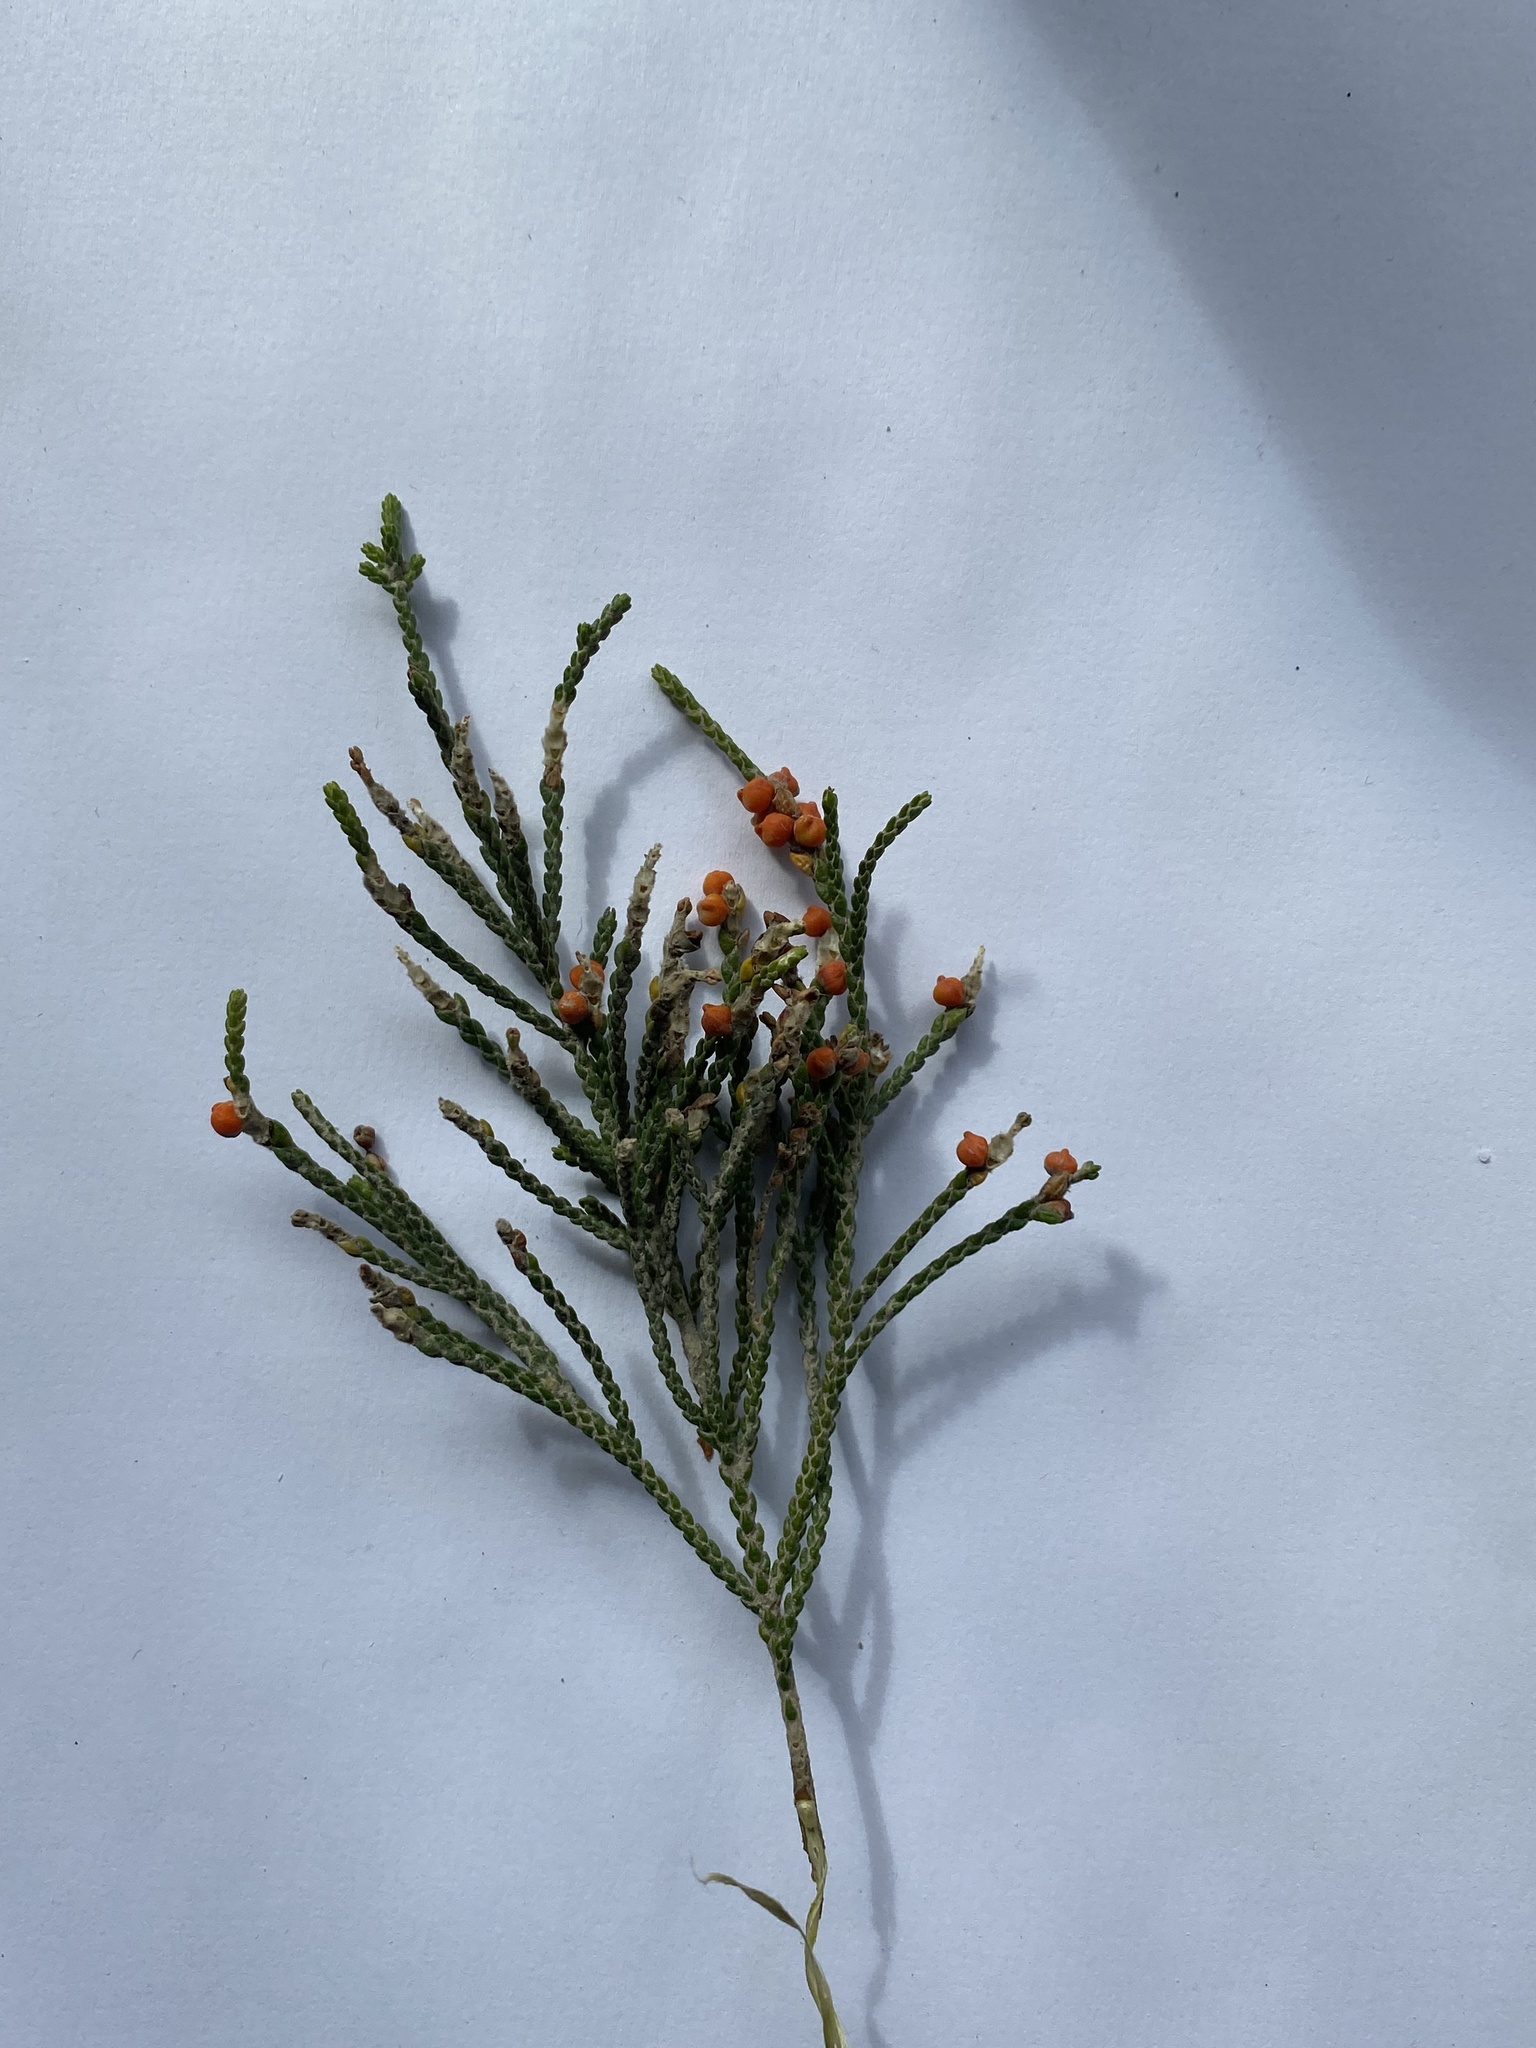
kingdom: Plantae
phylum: Tracheophyta
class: Magnoliopsida
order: Malvales
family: Thymelaeaceae
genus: Passerina
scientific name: Passerina rigida
